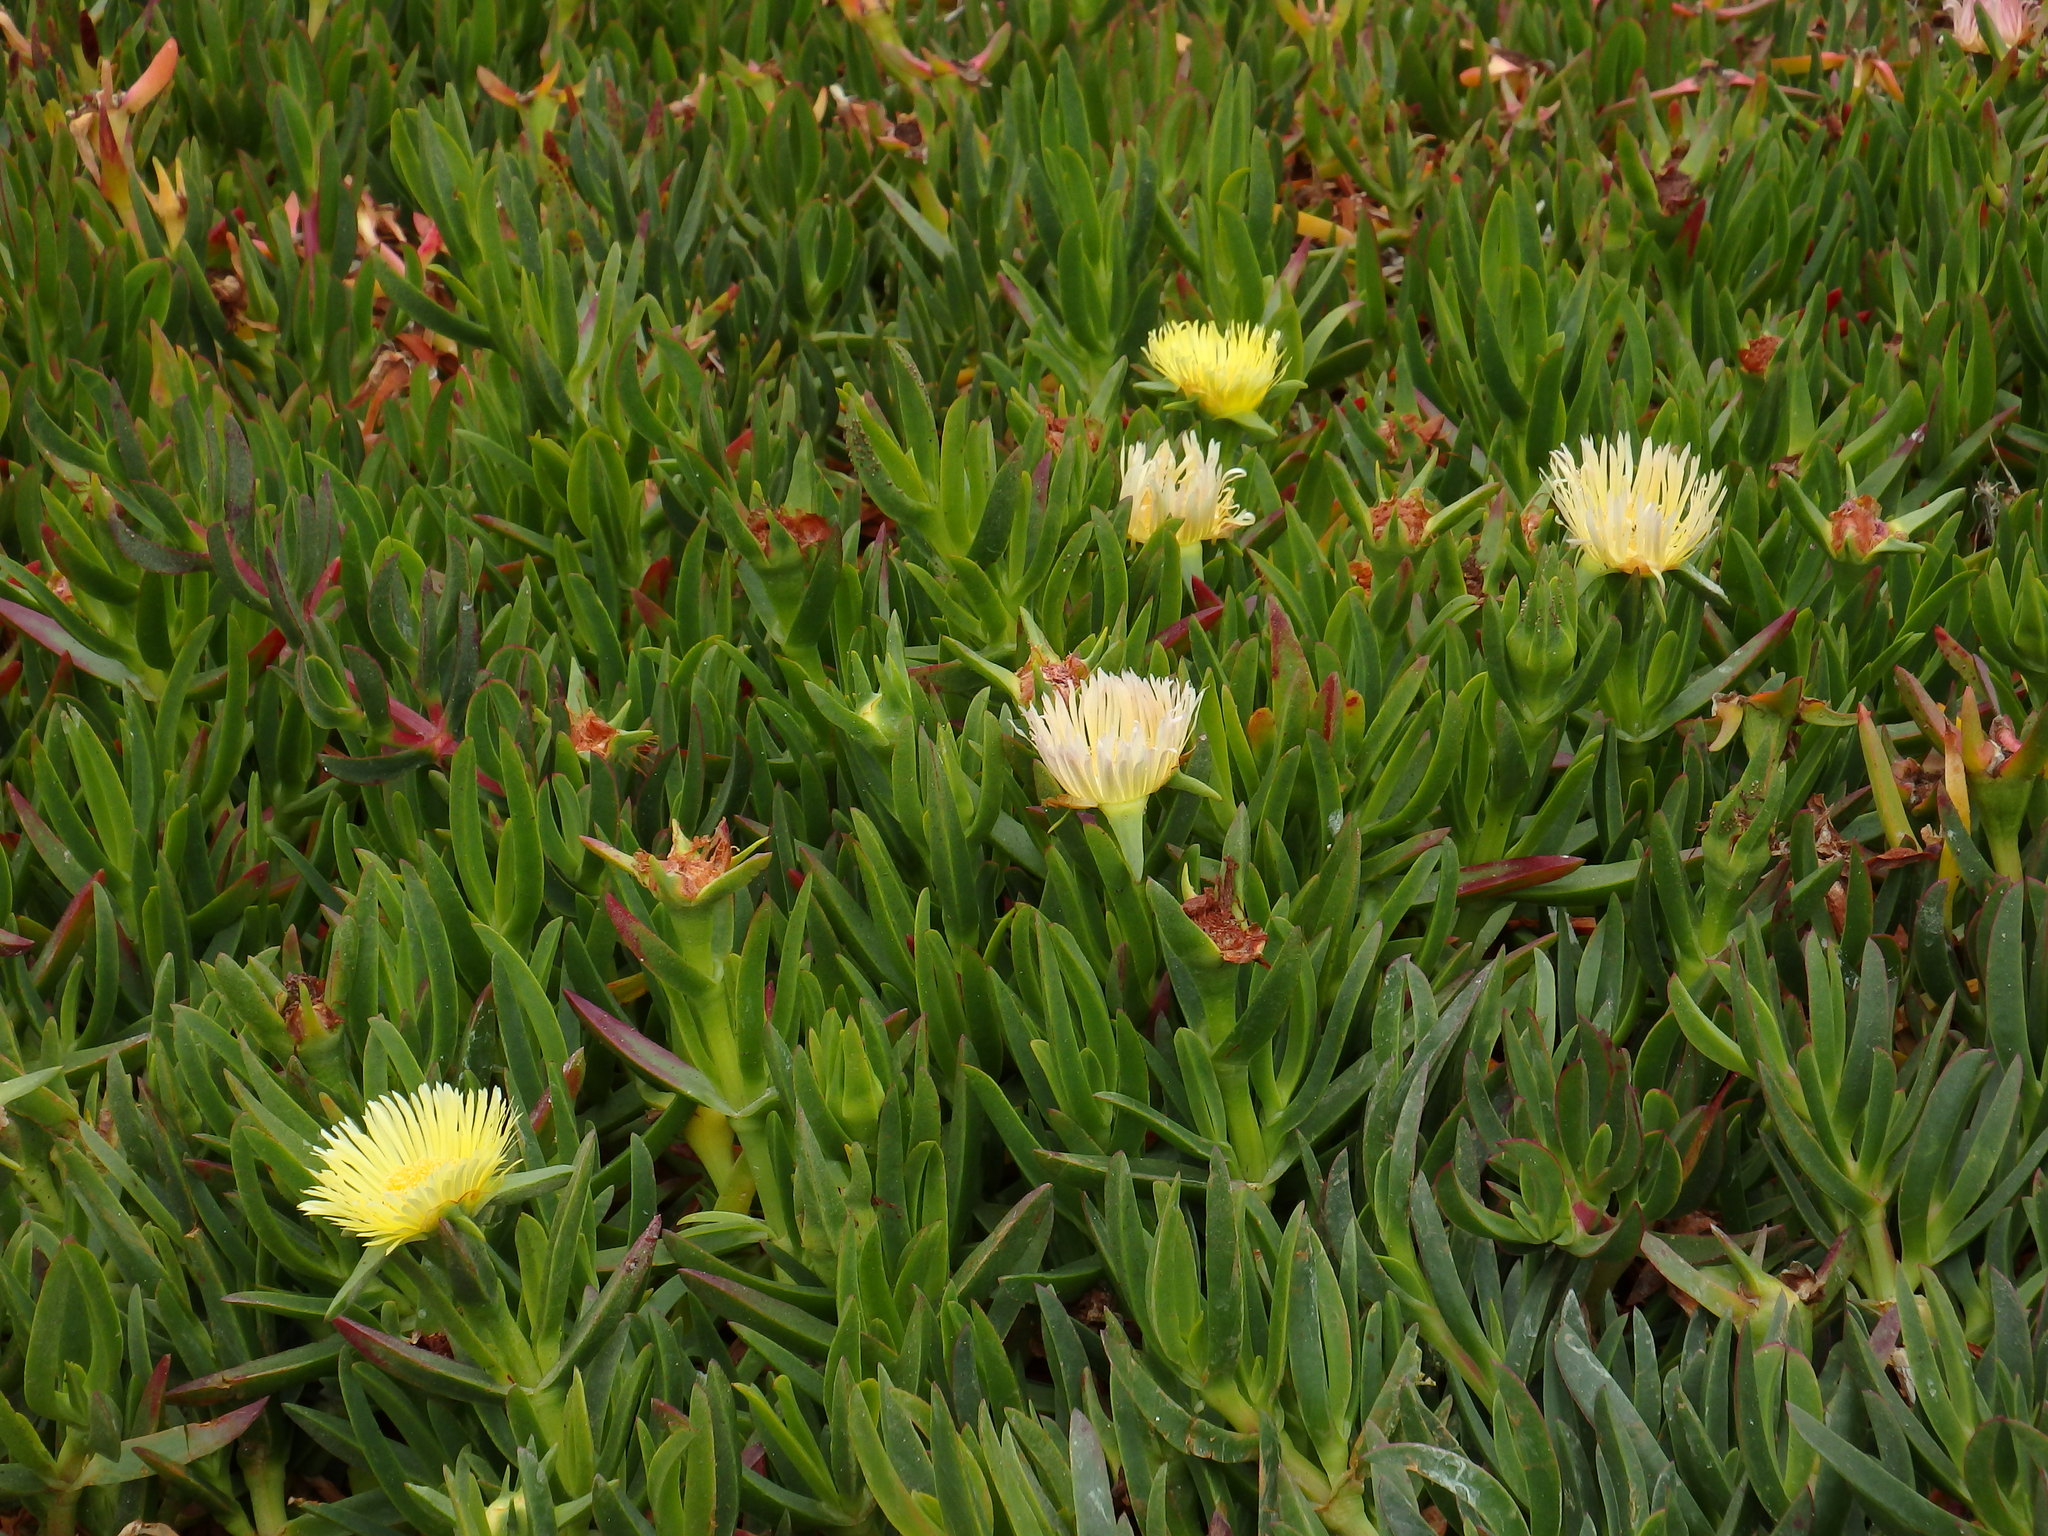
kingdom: Plantae
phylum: Tracheophyta
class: Magnoliopsida
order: Caryophyllales
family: Aizoaceae
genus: Carpobrotus
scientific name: Carpobrotus edulis
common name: Hottentot-fig
